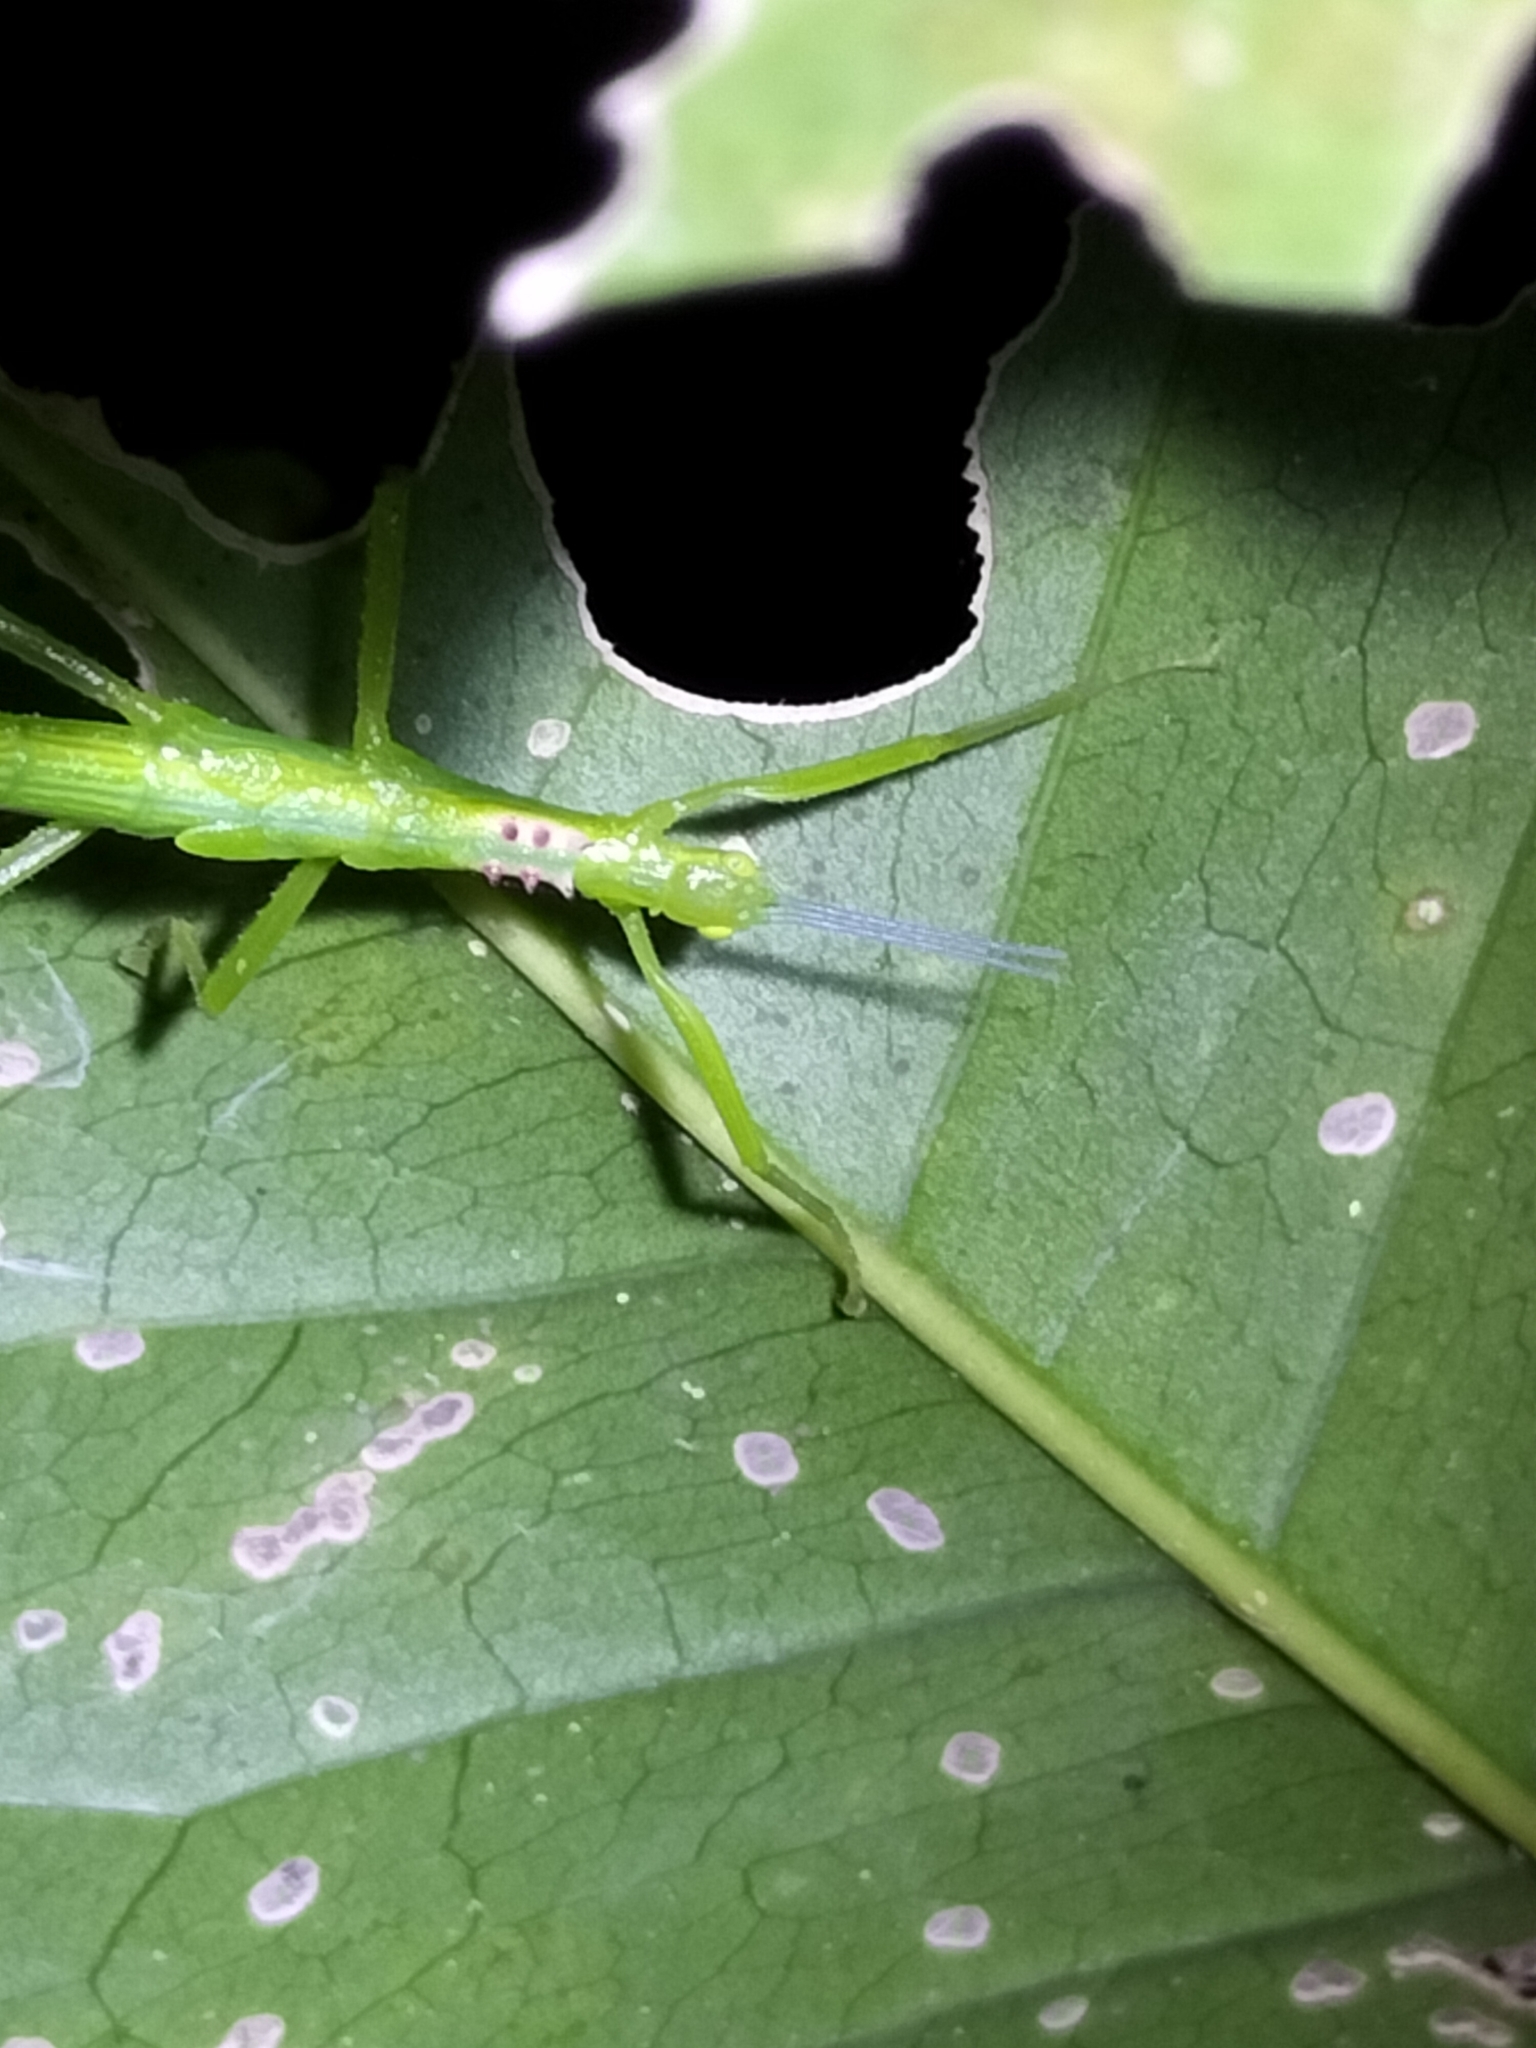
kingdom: Animalia
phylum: Arthropoda
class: Insecta
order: Phasmida
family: Phasmatidae
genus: Parapodacanthus
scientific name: Parapodacanthus hasenpuschorum
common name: Hasenpusch family stick-insect
